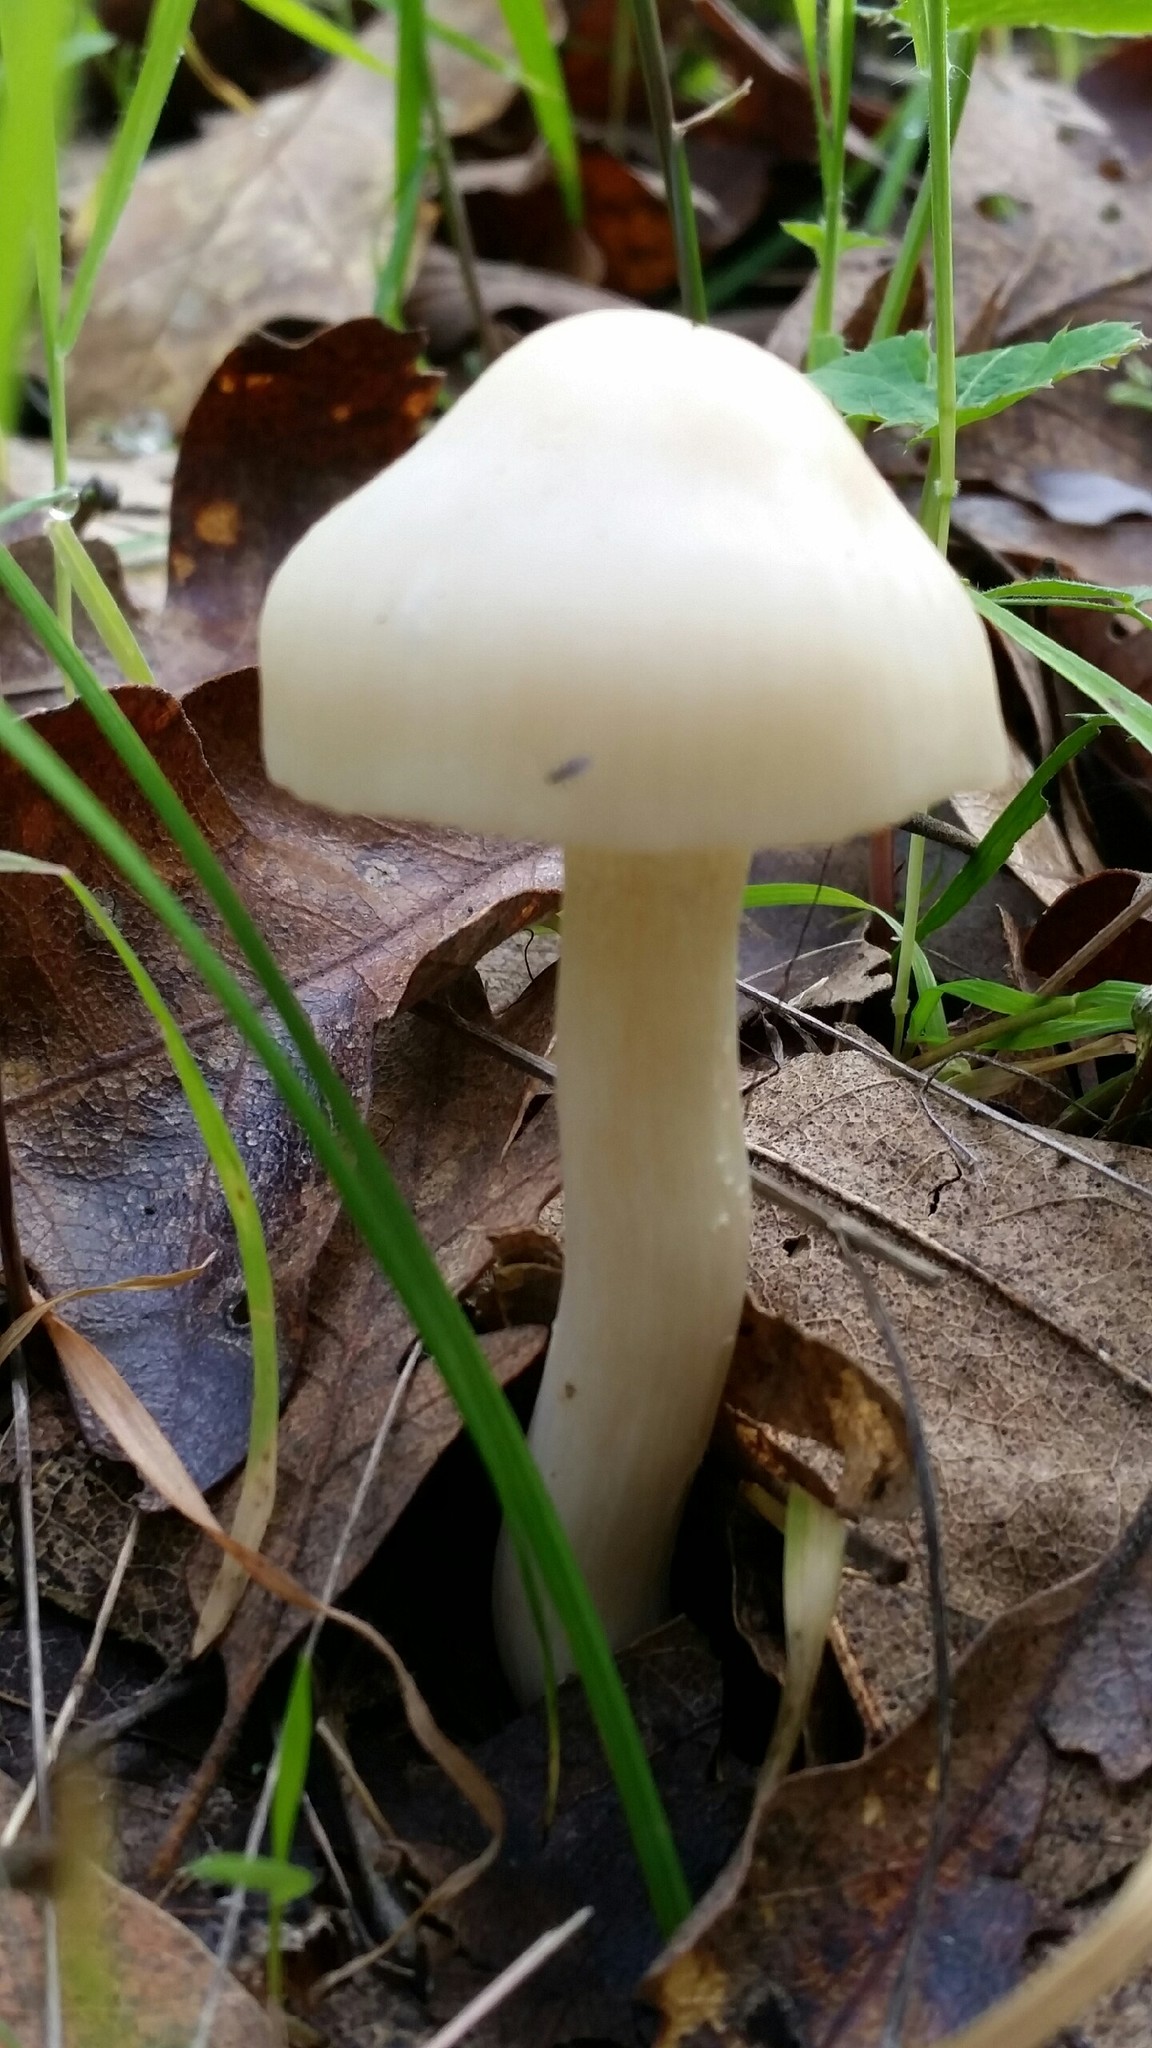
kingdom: Fungi
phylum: Basidiomycota
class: Agaricomycetes
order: Agaricales
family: Hygrophoraceae
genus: Cuphophyllus
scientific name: Cuphophyllus virgineus
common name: Snowy waxcap
